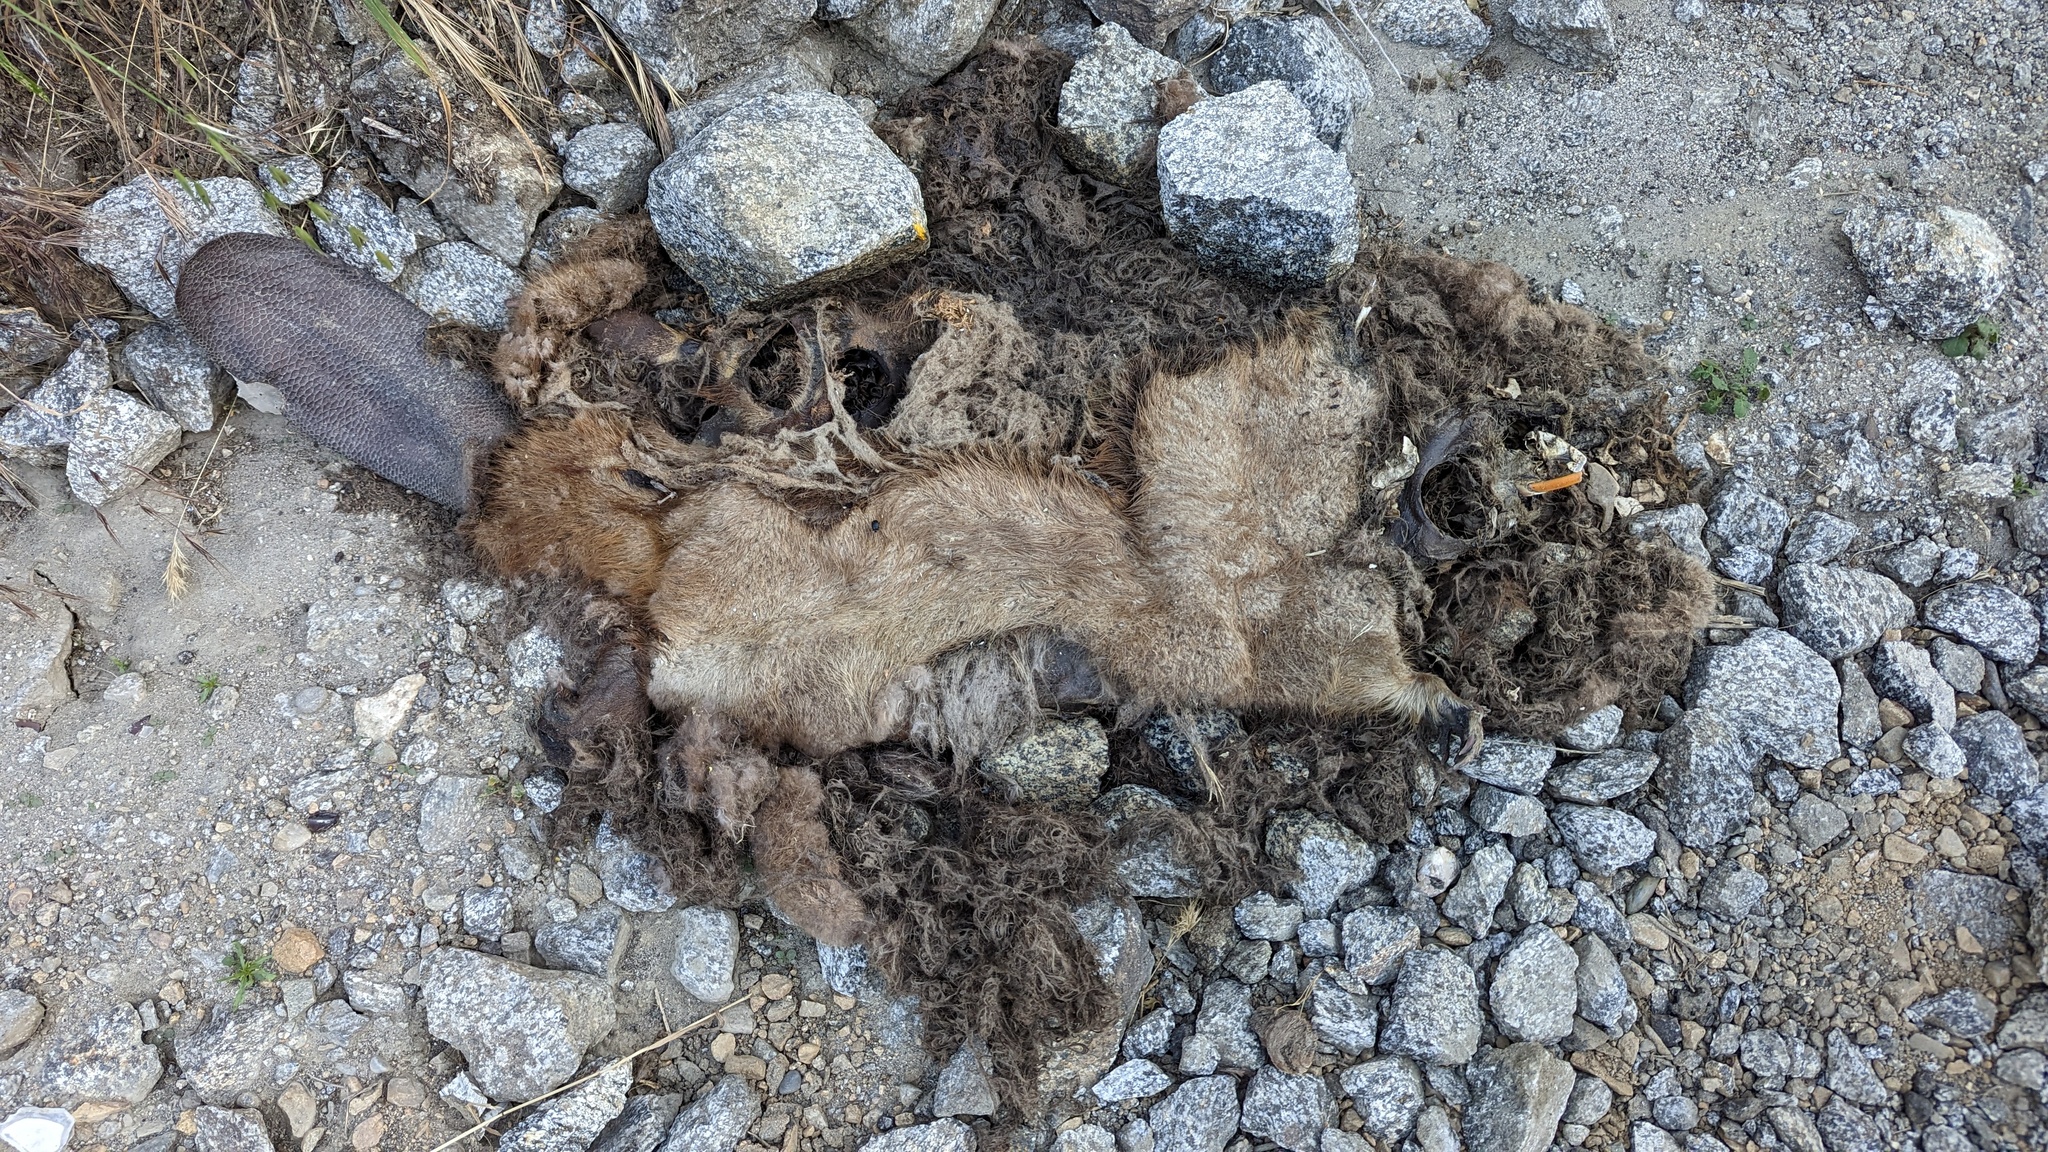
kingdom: Animalia
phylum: Chordata
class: Mammalia
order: Rodentia
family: Castoridae
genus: Castor
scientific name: Castor canadensis
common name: American beaver
